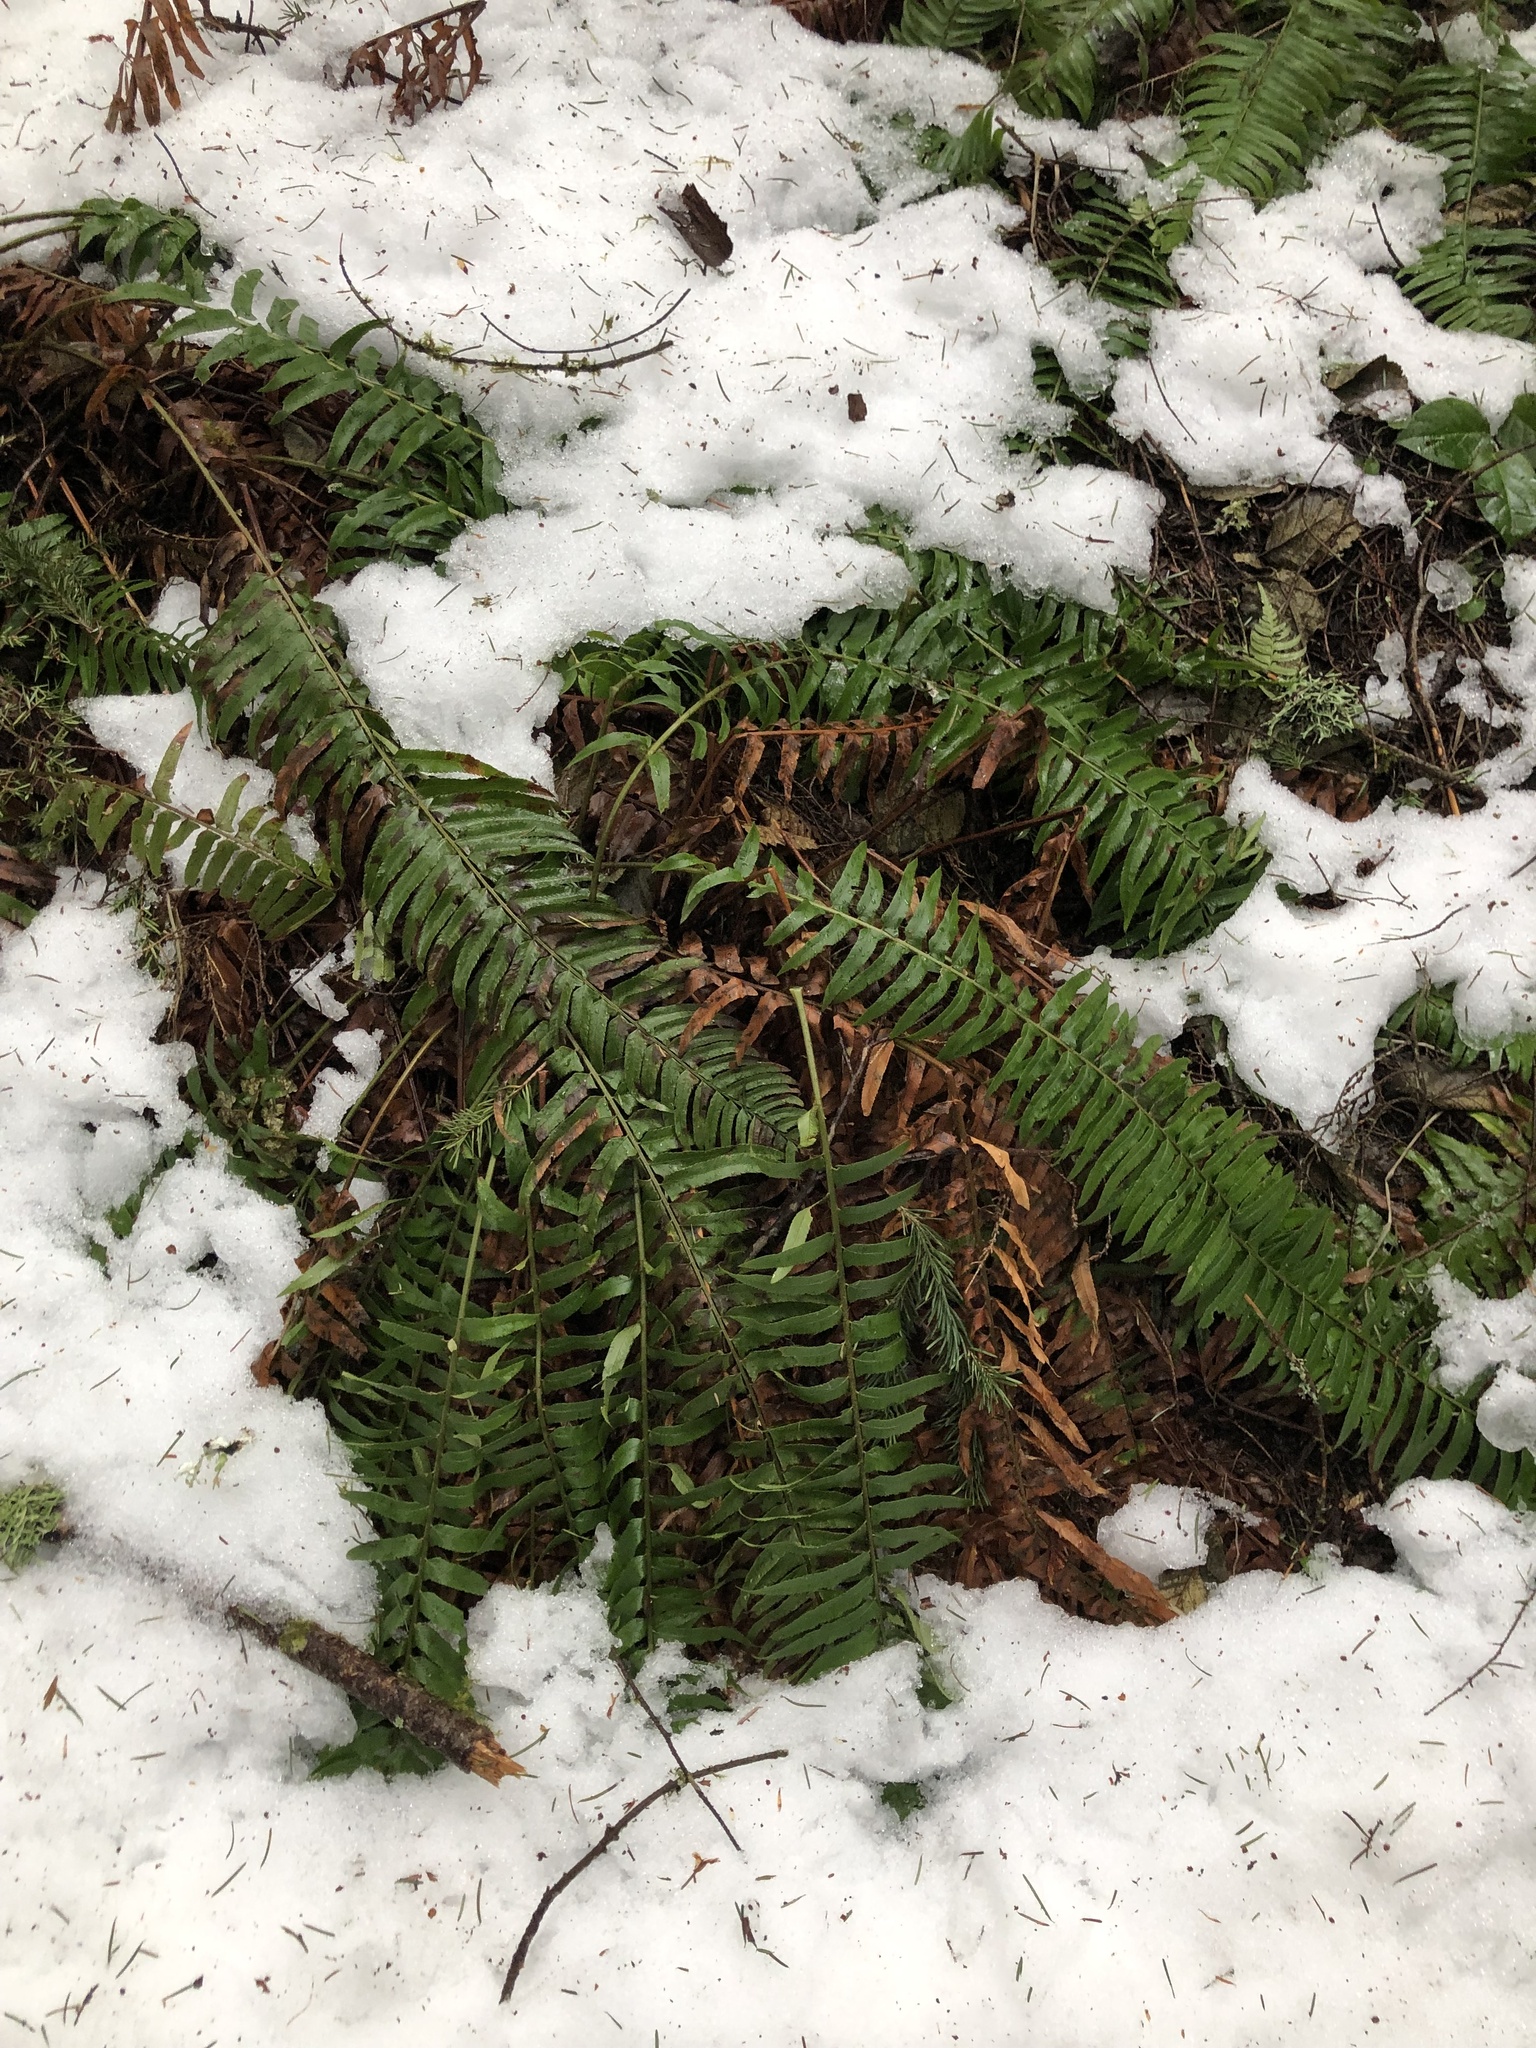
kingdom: Plantae
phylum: Tracheophyta
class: Polypodiopsida
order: Polypodiales
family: Dryopteridaceae
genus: Polystichum
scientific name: Polystichum munitum
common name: Western sword-fern
